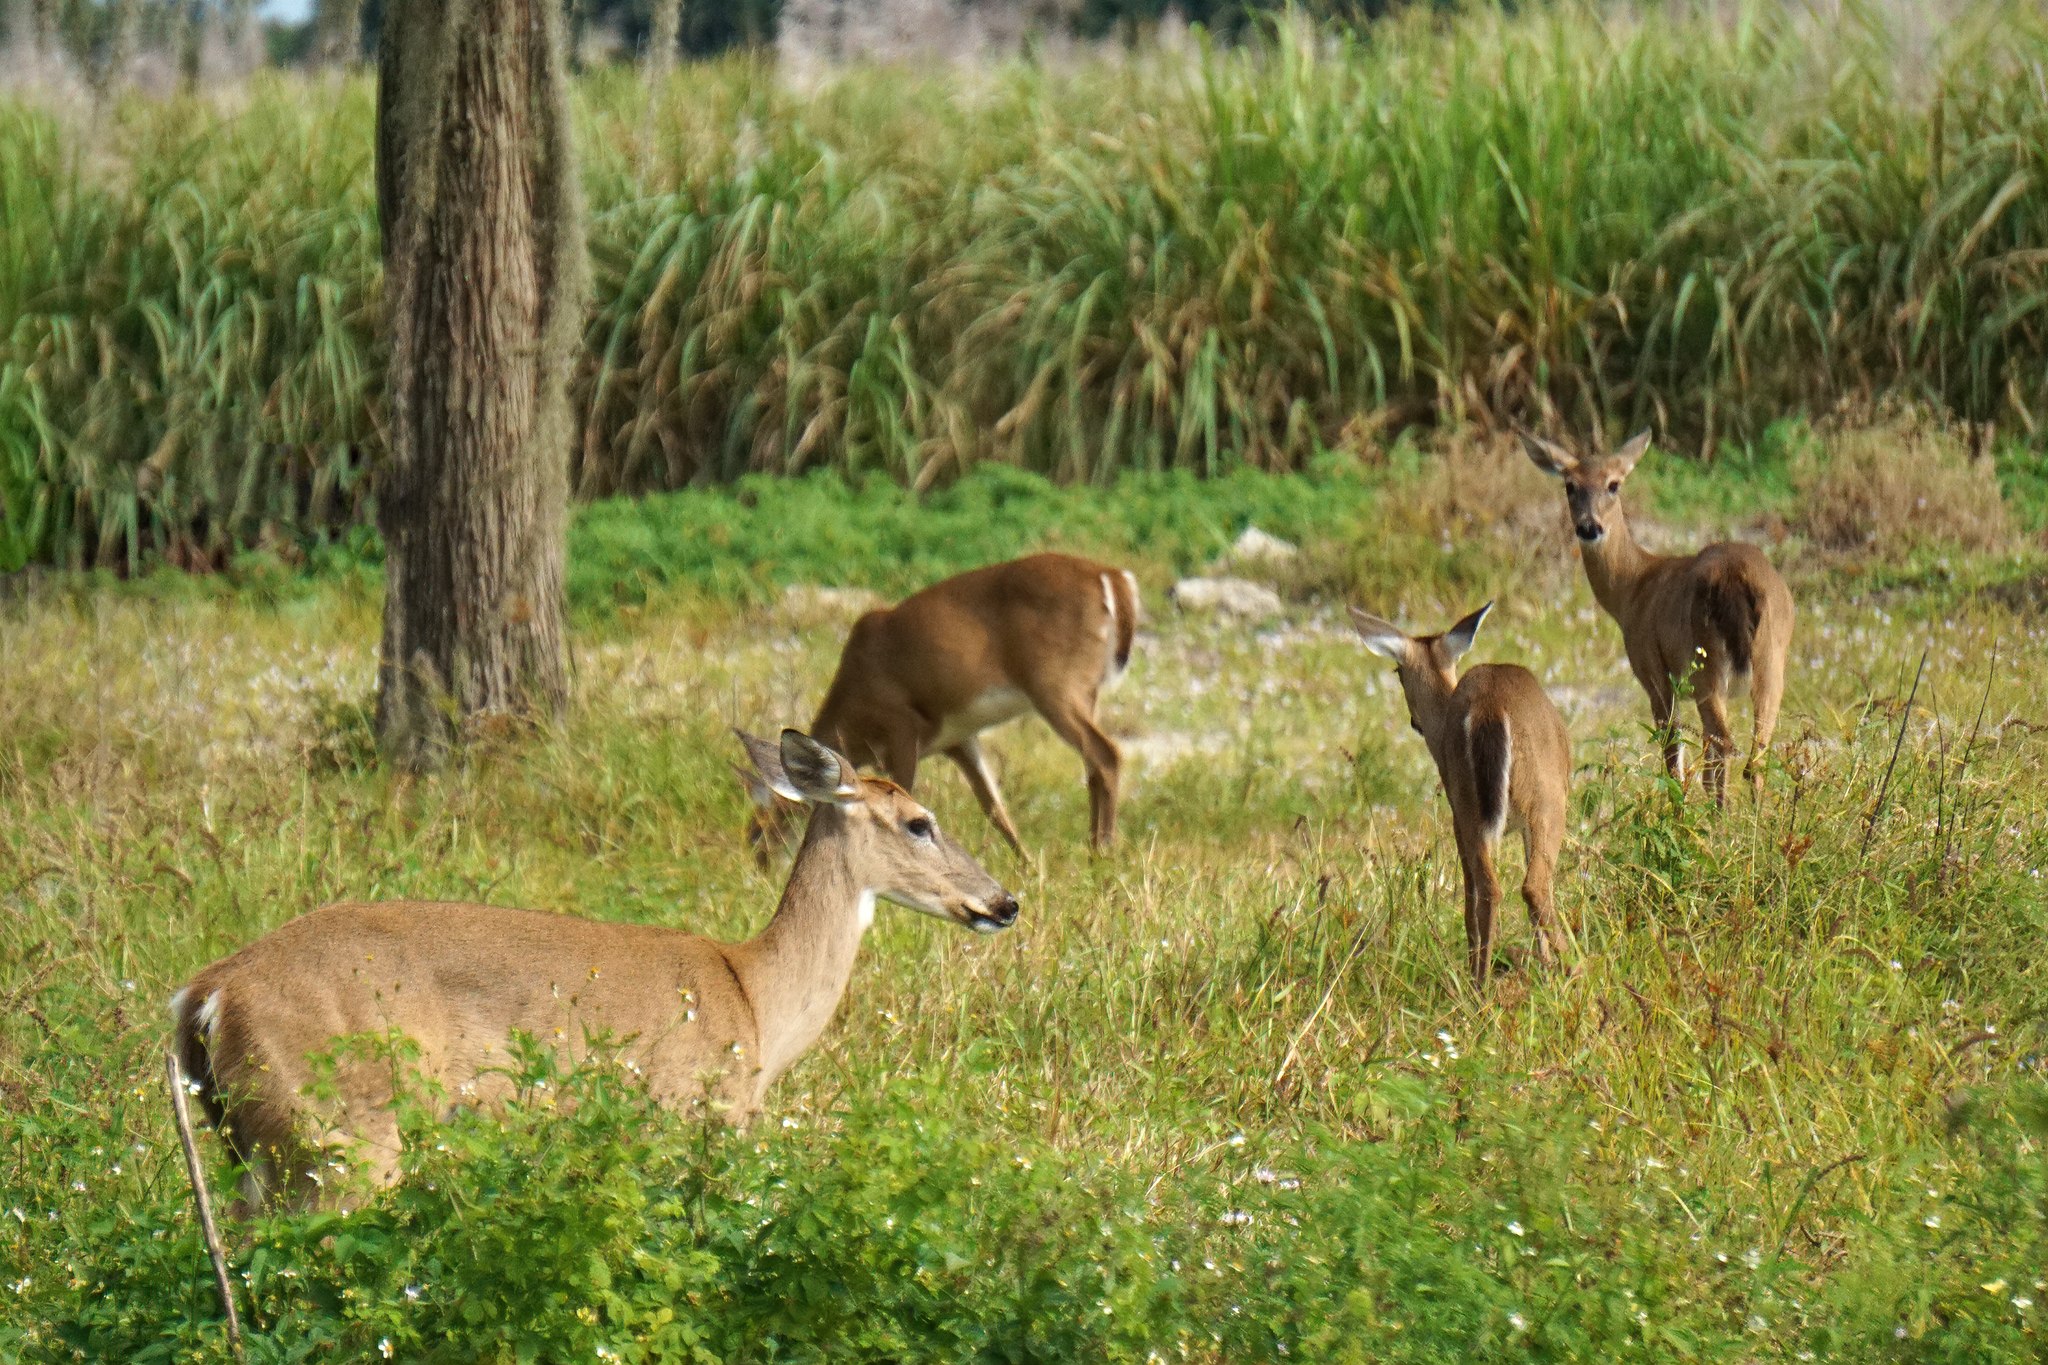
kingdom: Animalia
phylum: Chordata
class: Mammalia
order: Artiodactyla
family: Cervidae
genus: Odocoileus
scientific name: Odocoileus virginianus
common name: White-tailed deer
